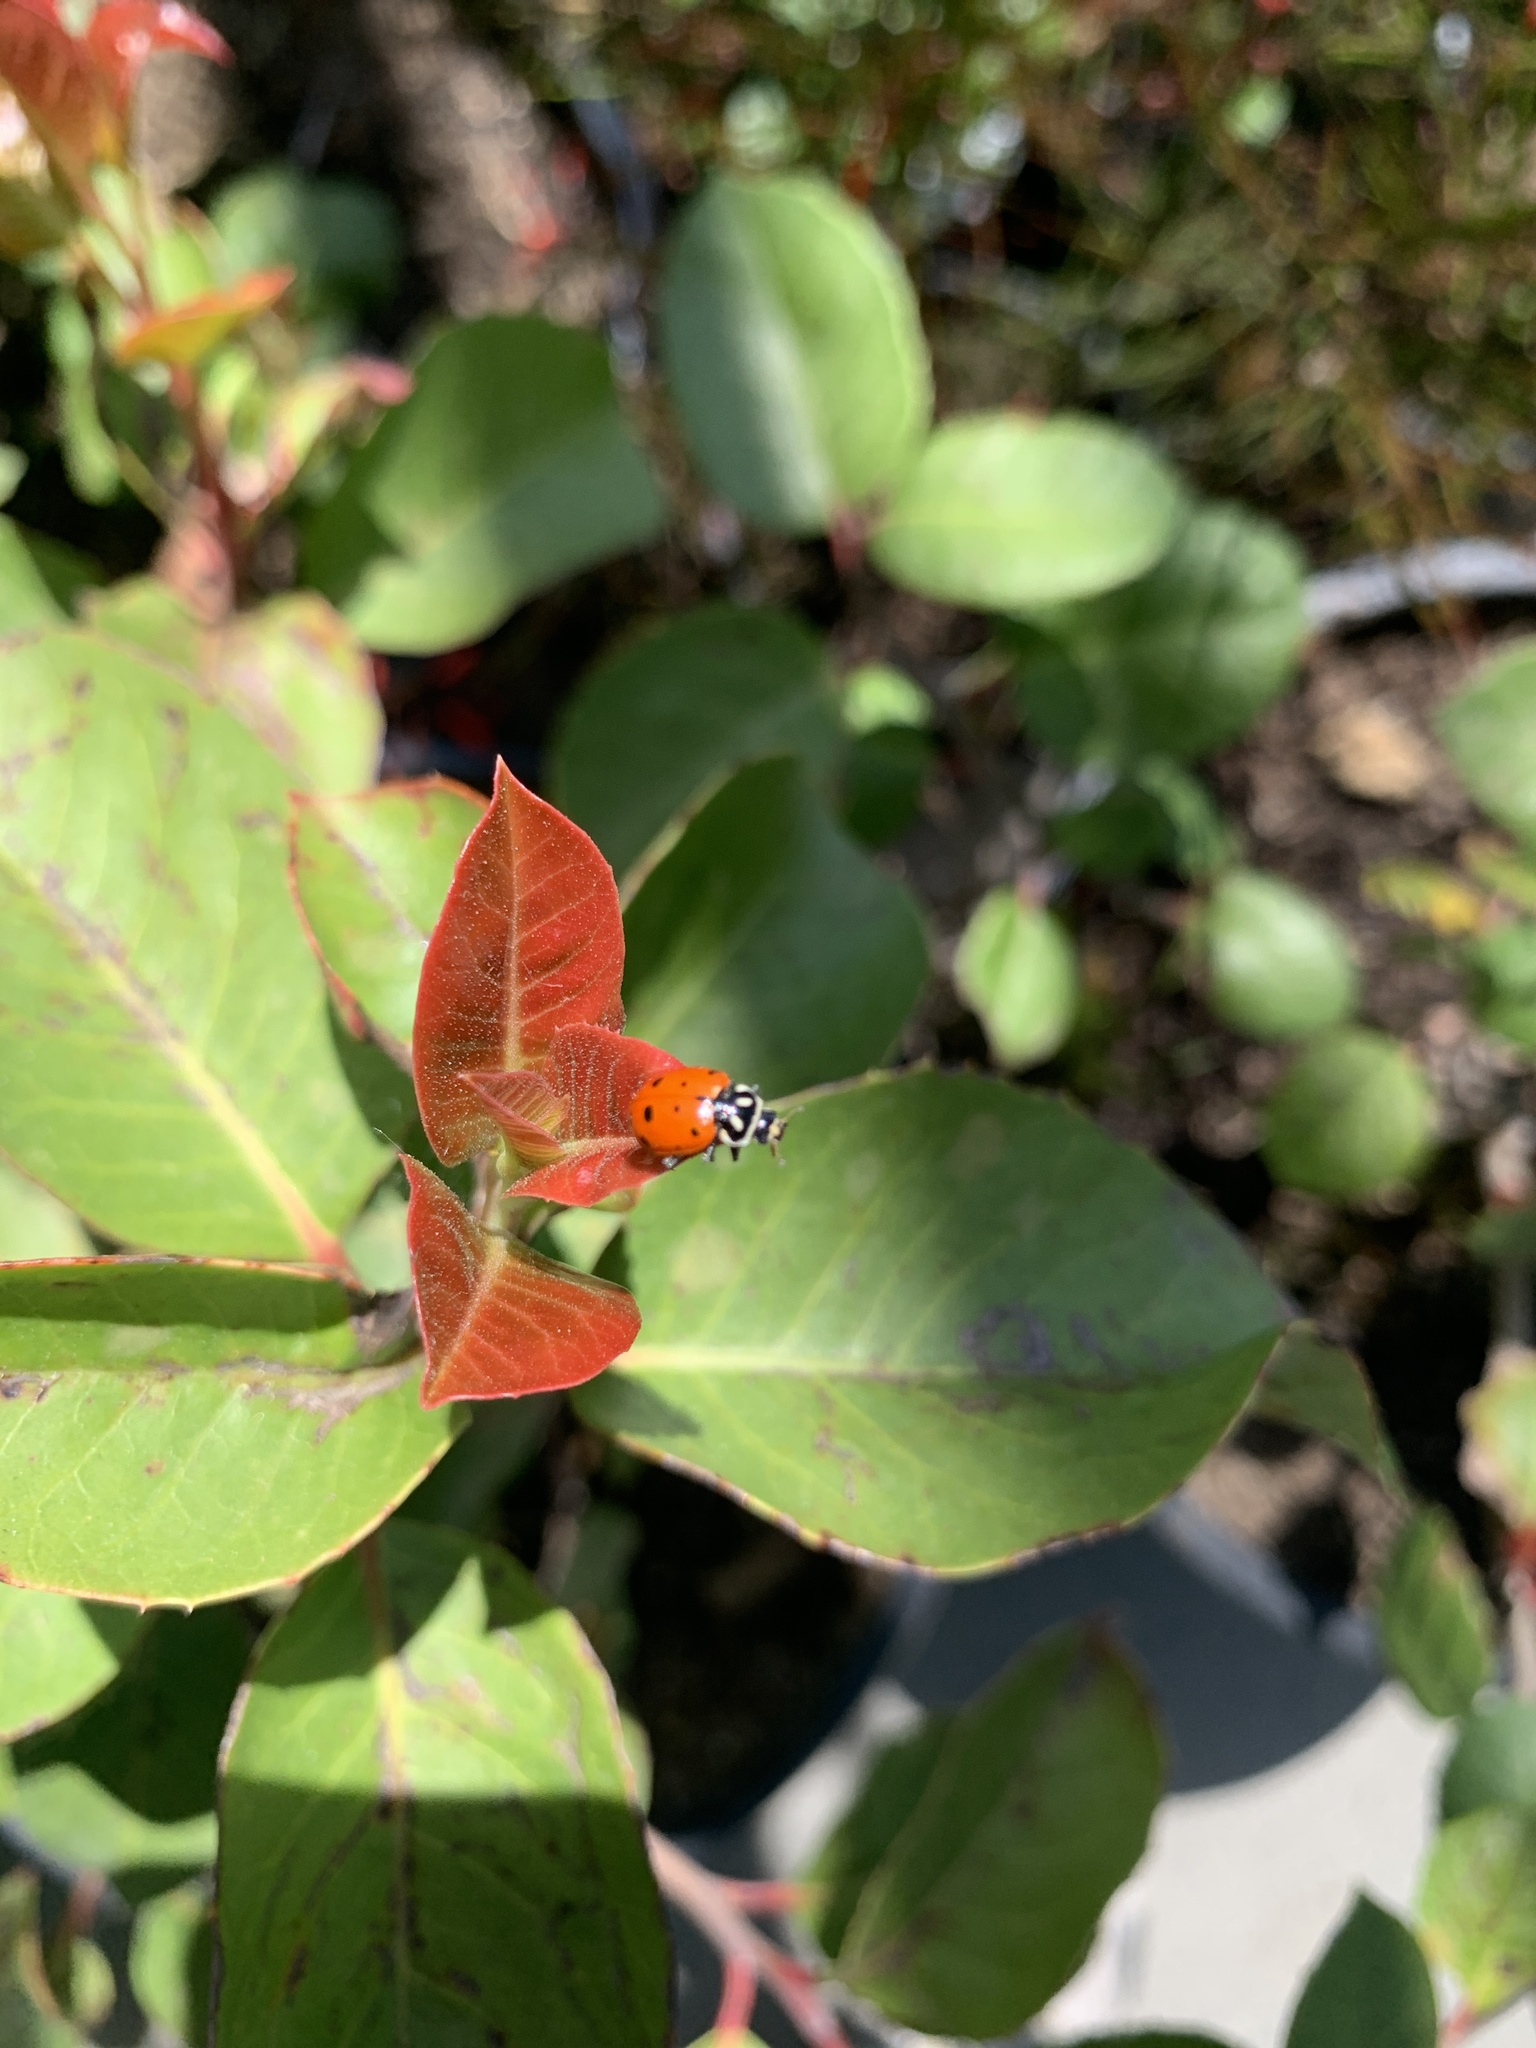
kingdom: Animalia
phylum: Arthropoda
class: Insecta
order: Coleoptera
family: Coccinellidae
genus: Hippodamia
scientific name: Hippodamia convergens
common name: Convergent lady beetle
